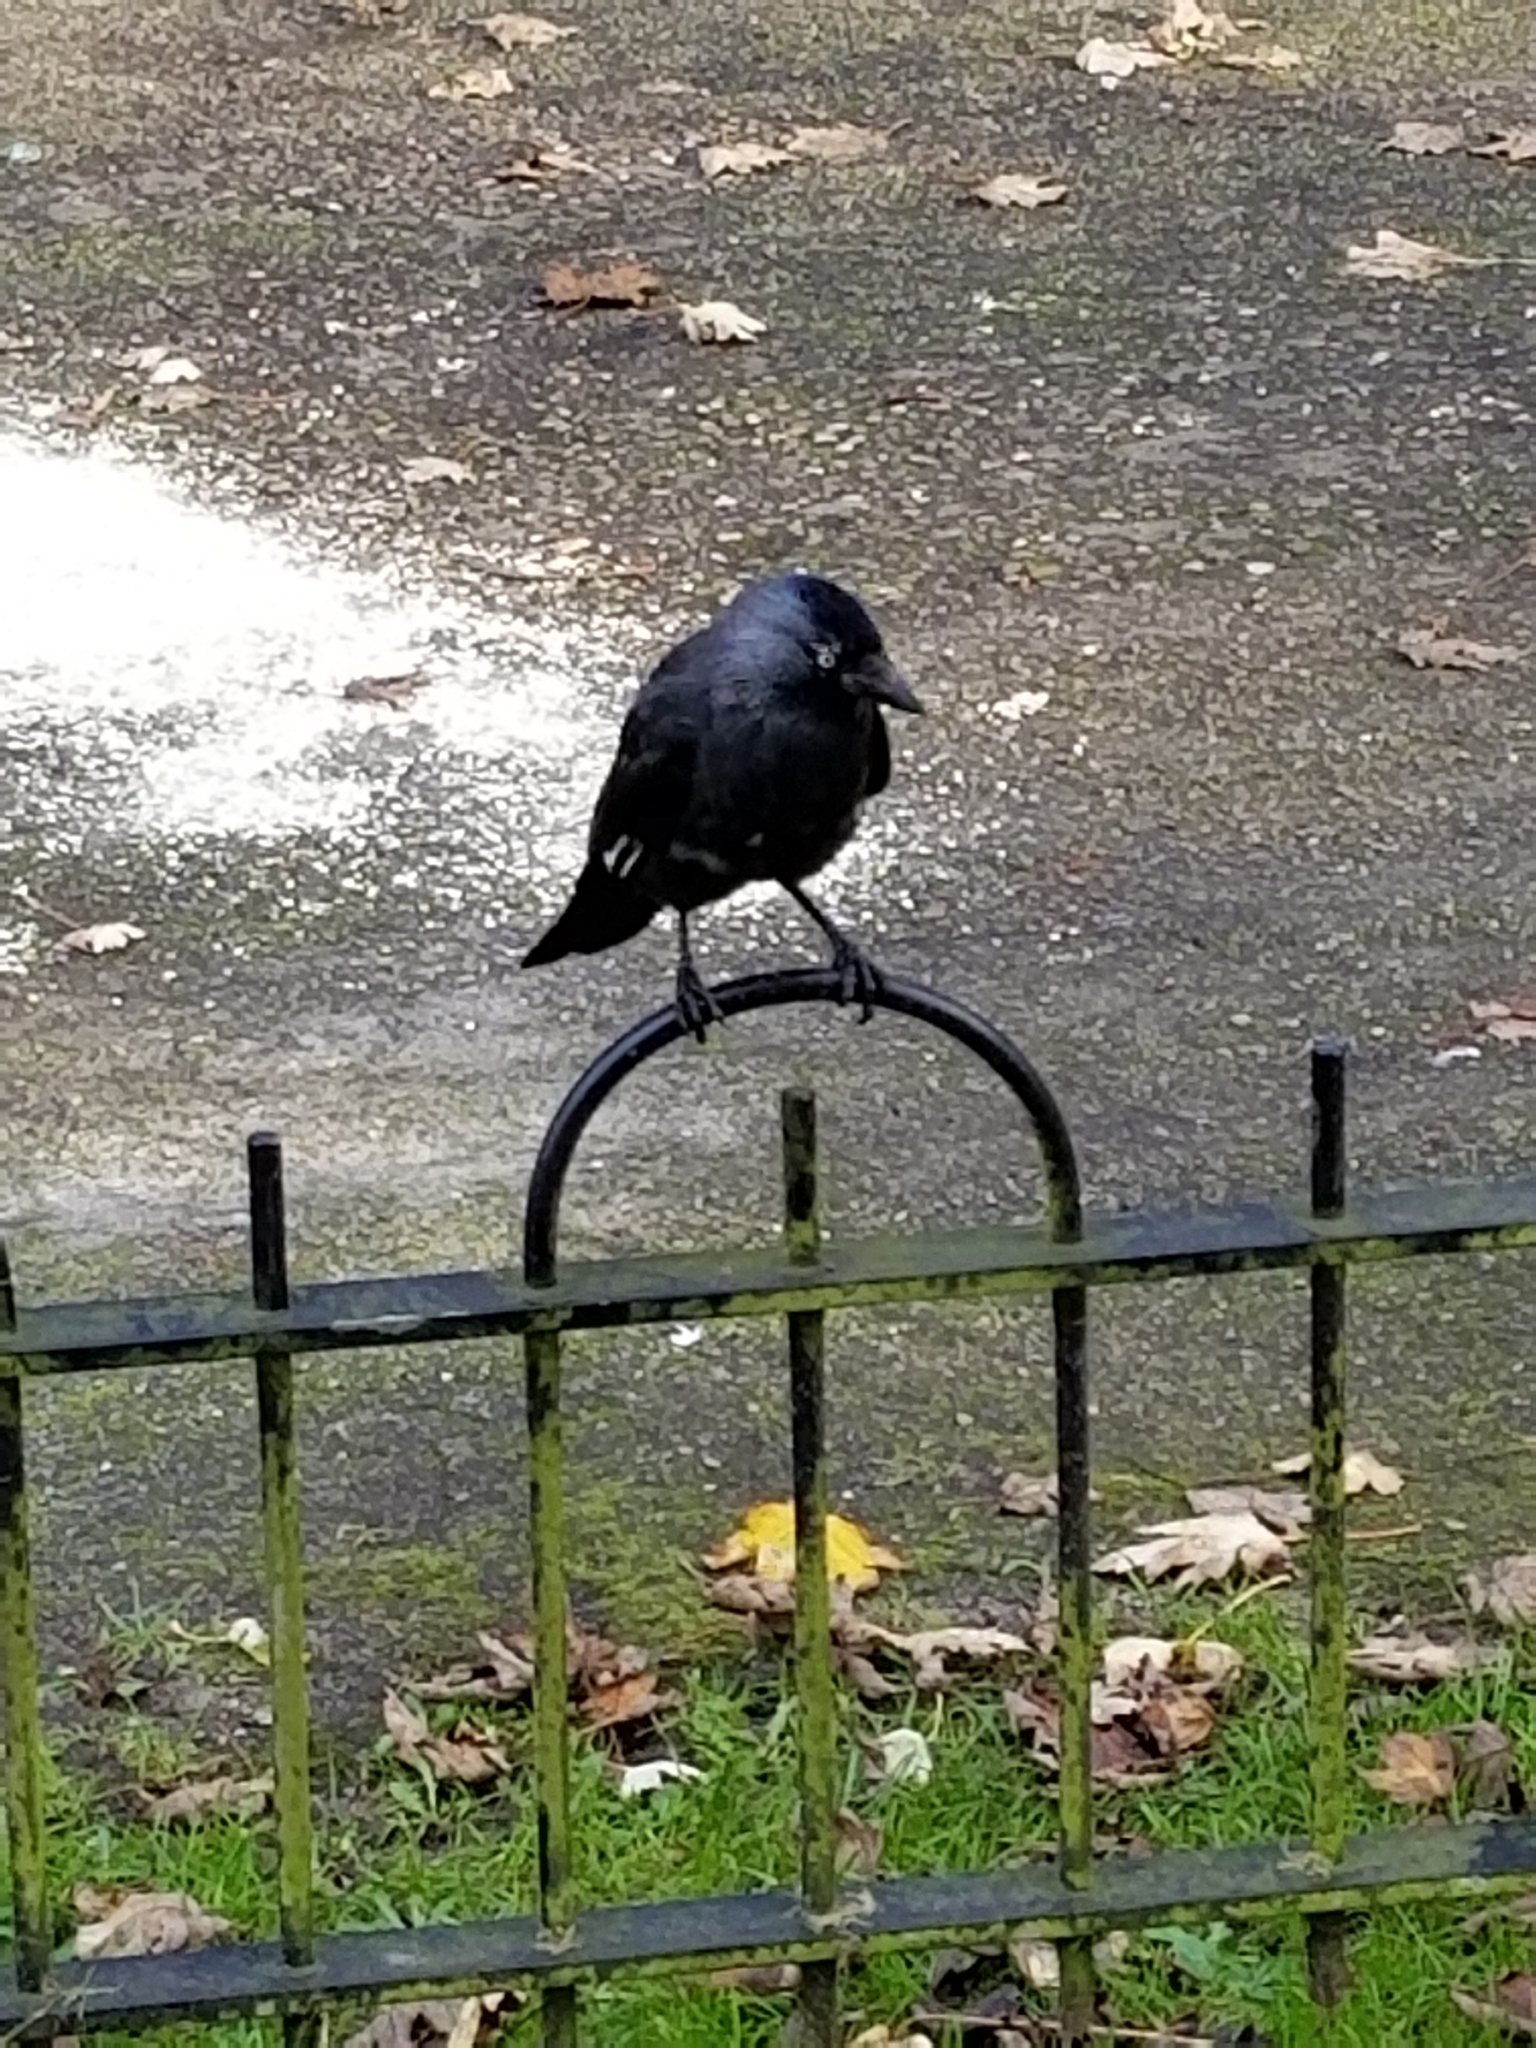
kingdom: Animalia
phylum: Chordata
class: Aves
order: Passeriformes
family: Corvidae
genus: Coloeus
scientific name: Coloeus monedula
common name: Western jackdaw
